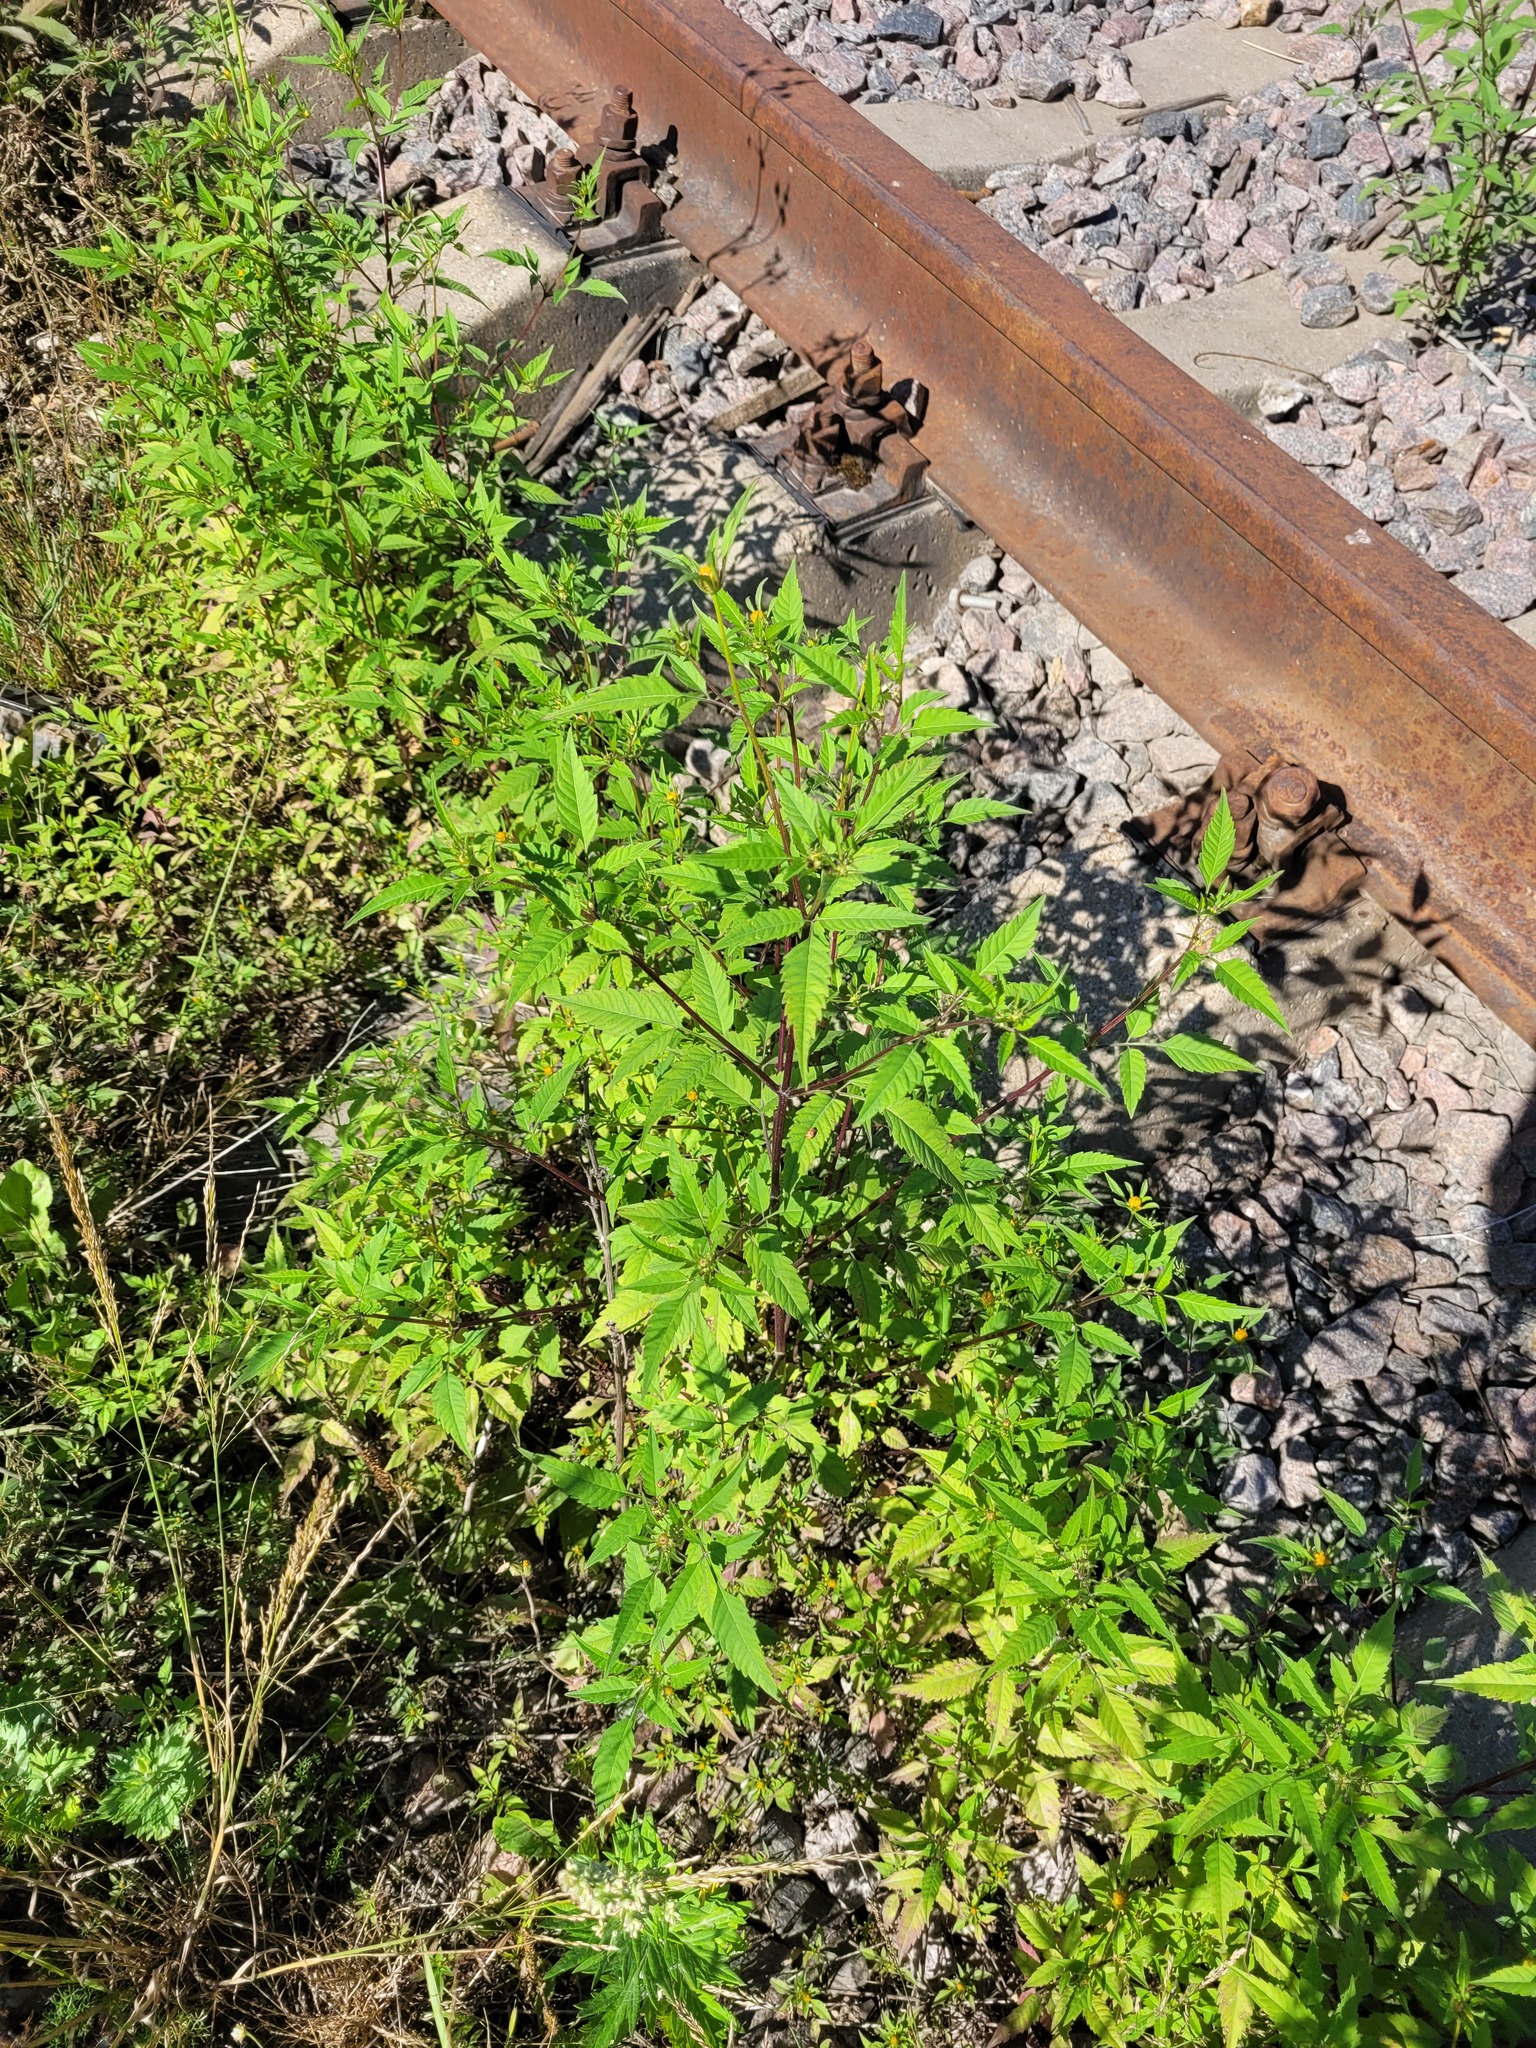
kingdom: Plantae
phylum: Tracheophyta
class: Magnoliopsida
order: Asterales
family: Asteraceae
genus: Bidens
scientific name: Bidens frondosa
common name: Beggarticks
